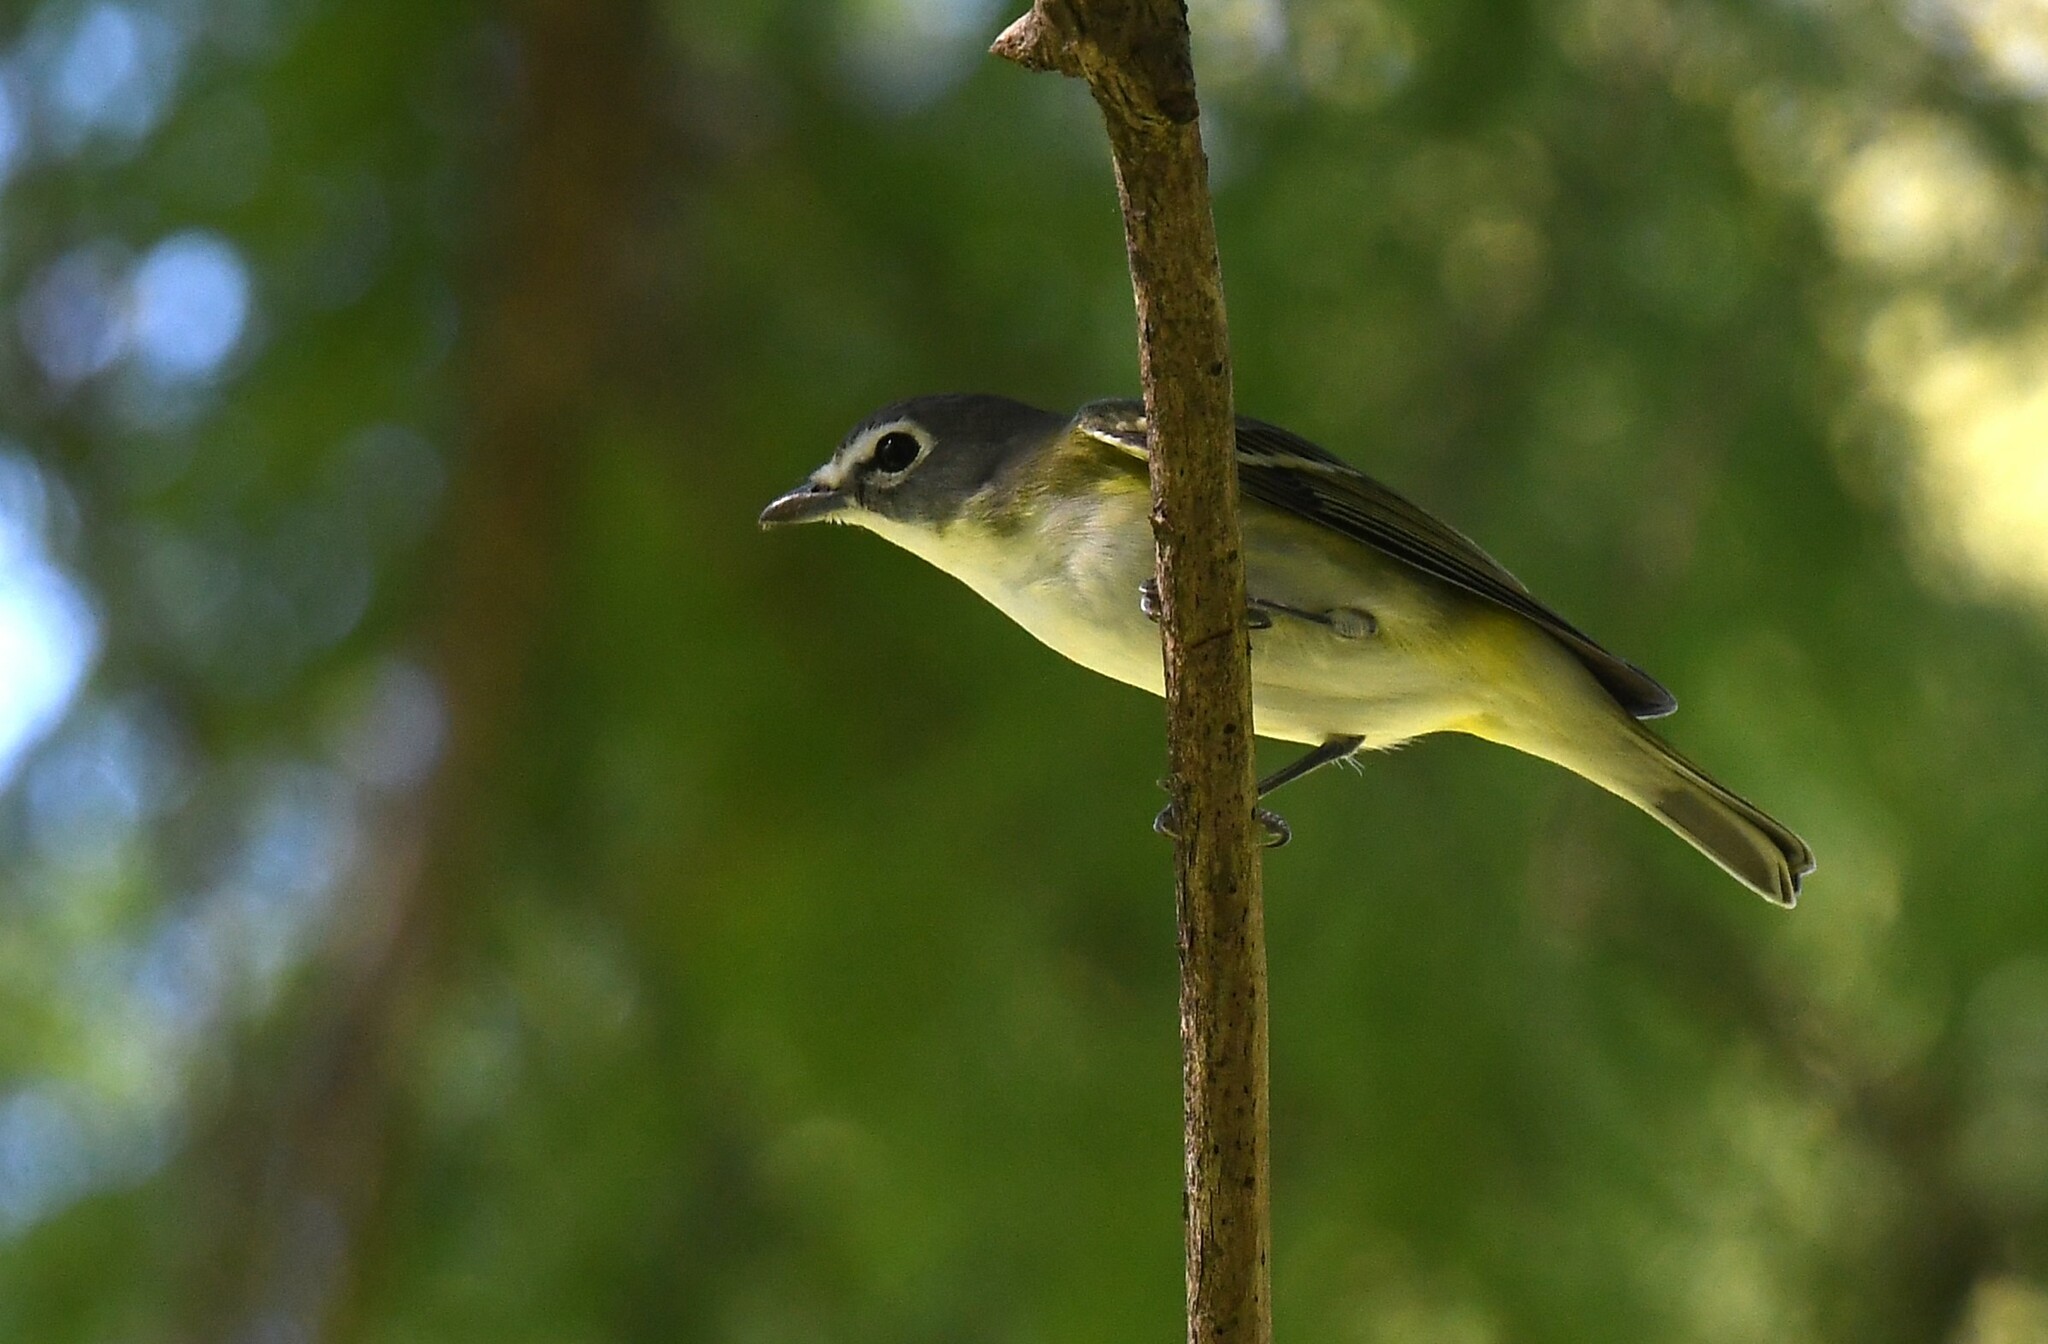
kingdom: Animalia
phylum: Chordata
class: Aves
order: Passeriformes
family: Vireonidae
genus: Vireo
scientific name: Vireo solitarius
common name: Blue-headed vireo
